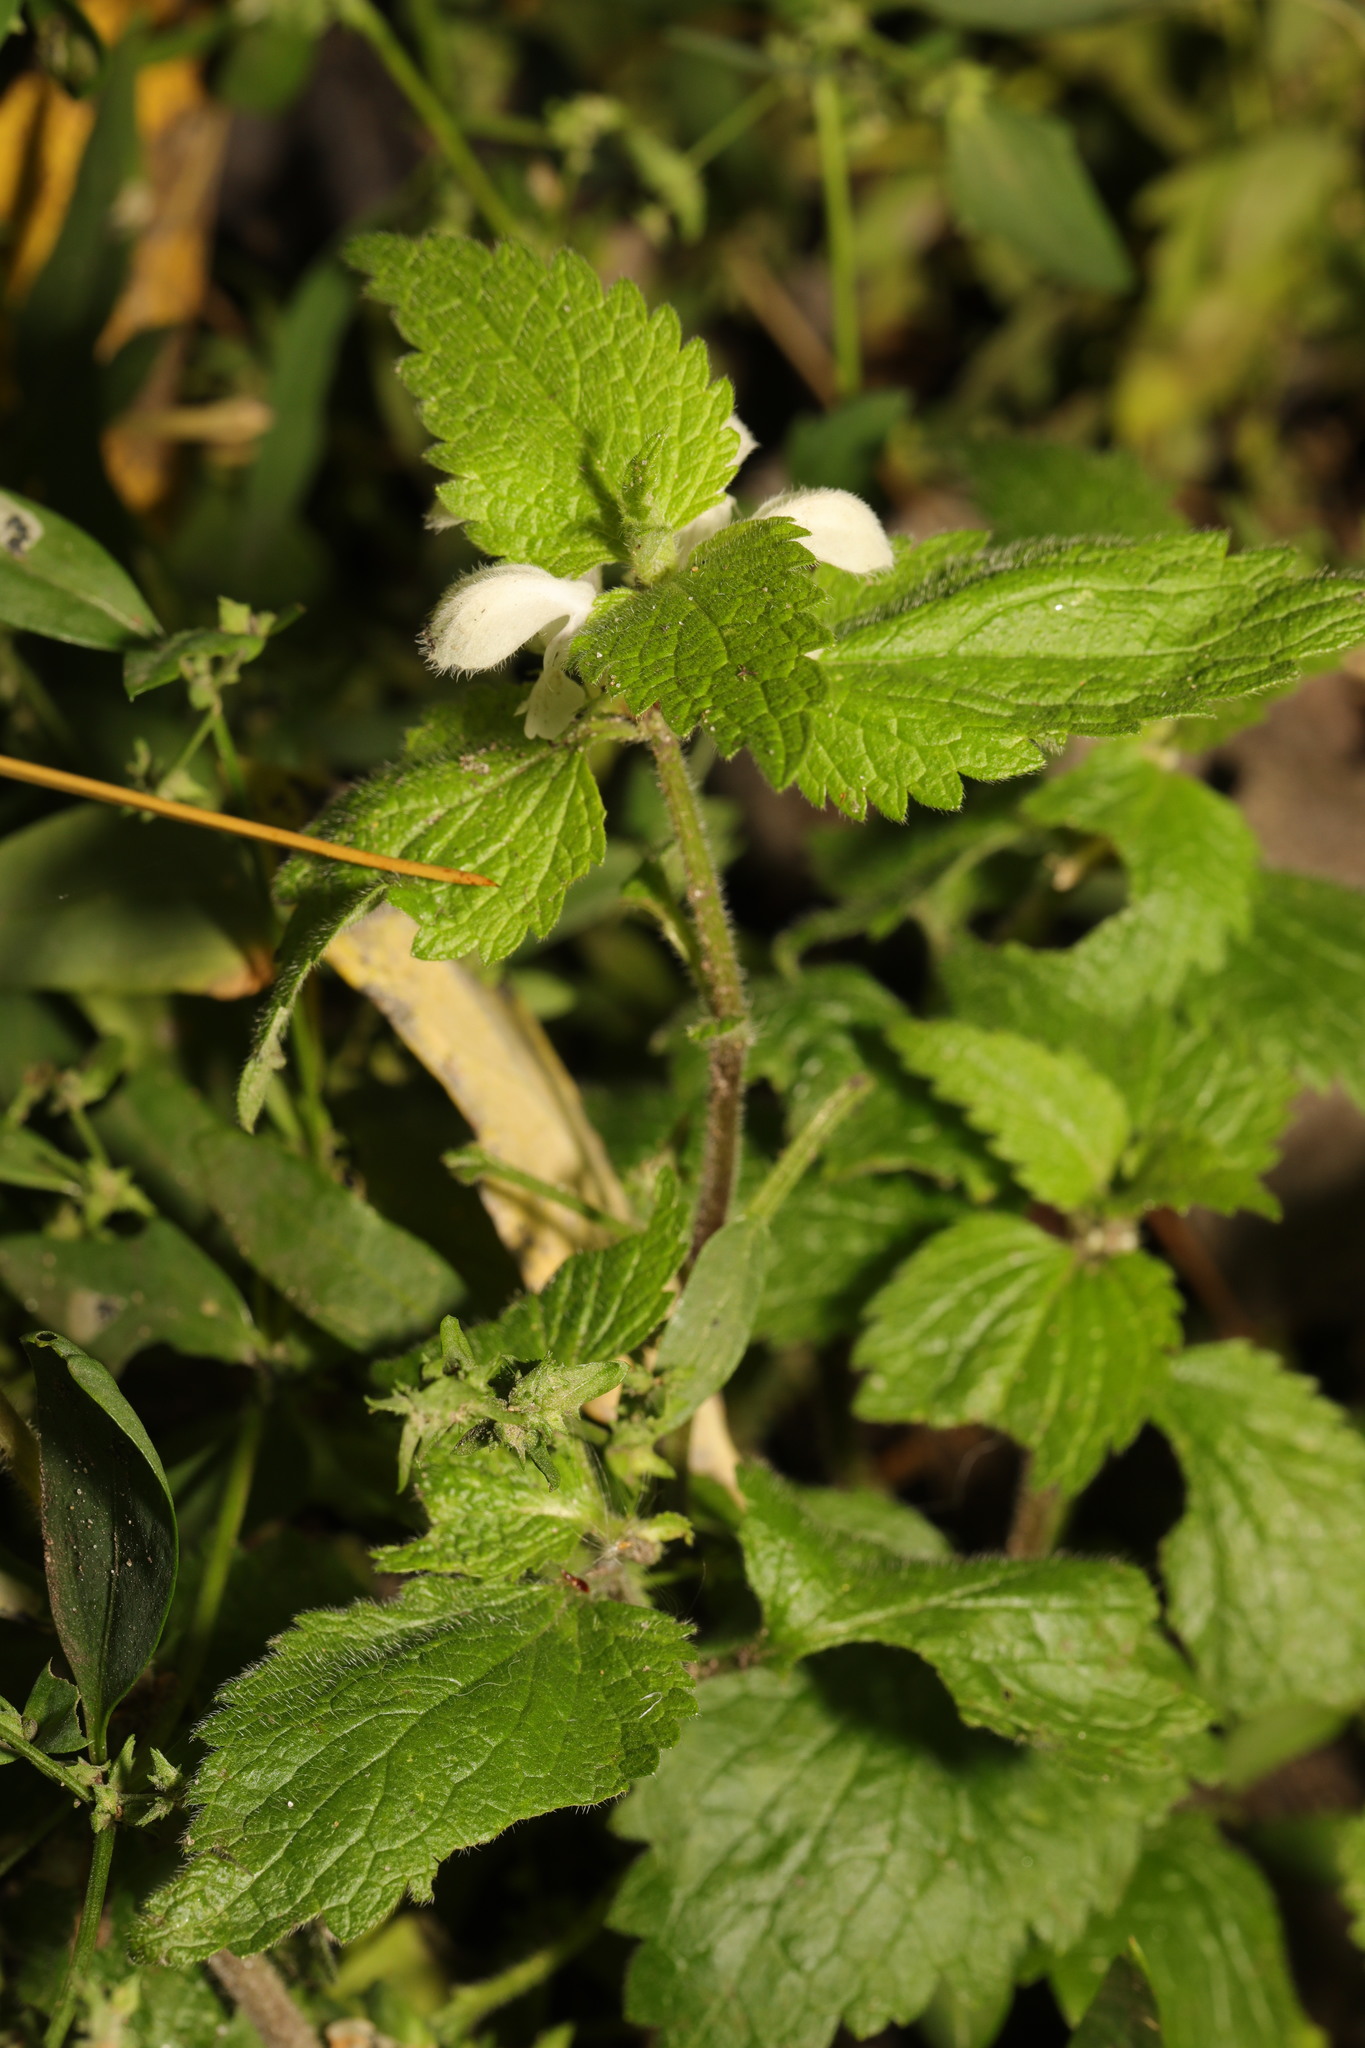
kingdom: Plantae
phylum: Tracheophyta
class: Magnoliopsida
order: Lamiales
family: Lamiaceae
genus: Lamium
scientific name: Lamium album
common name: White dead-nettle
